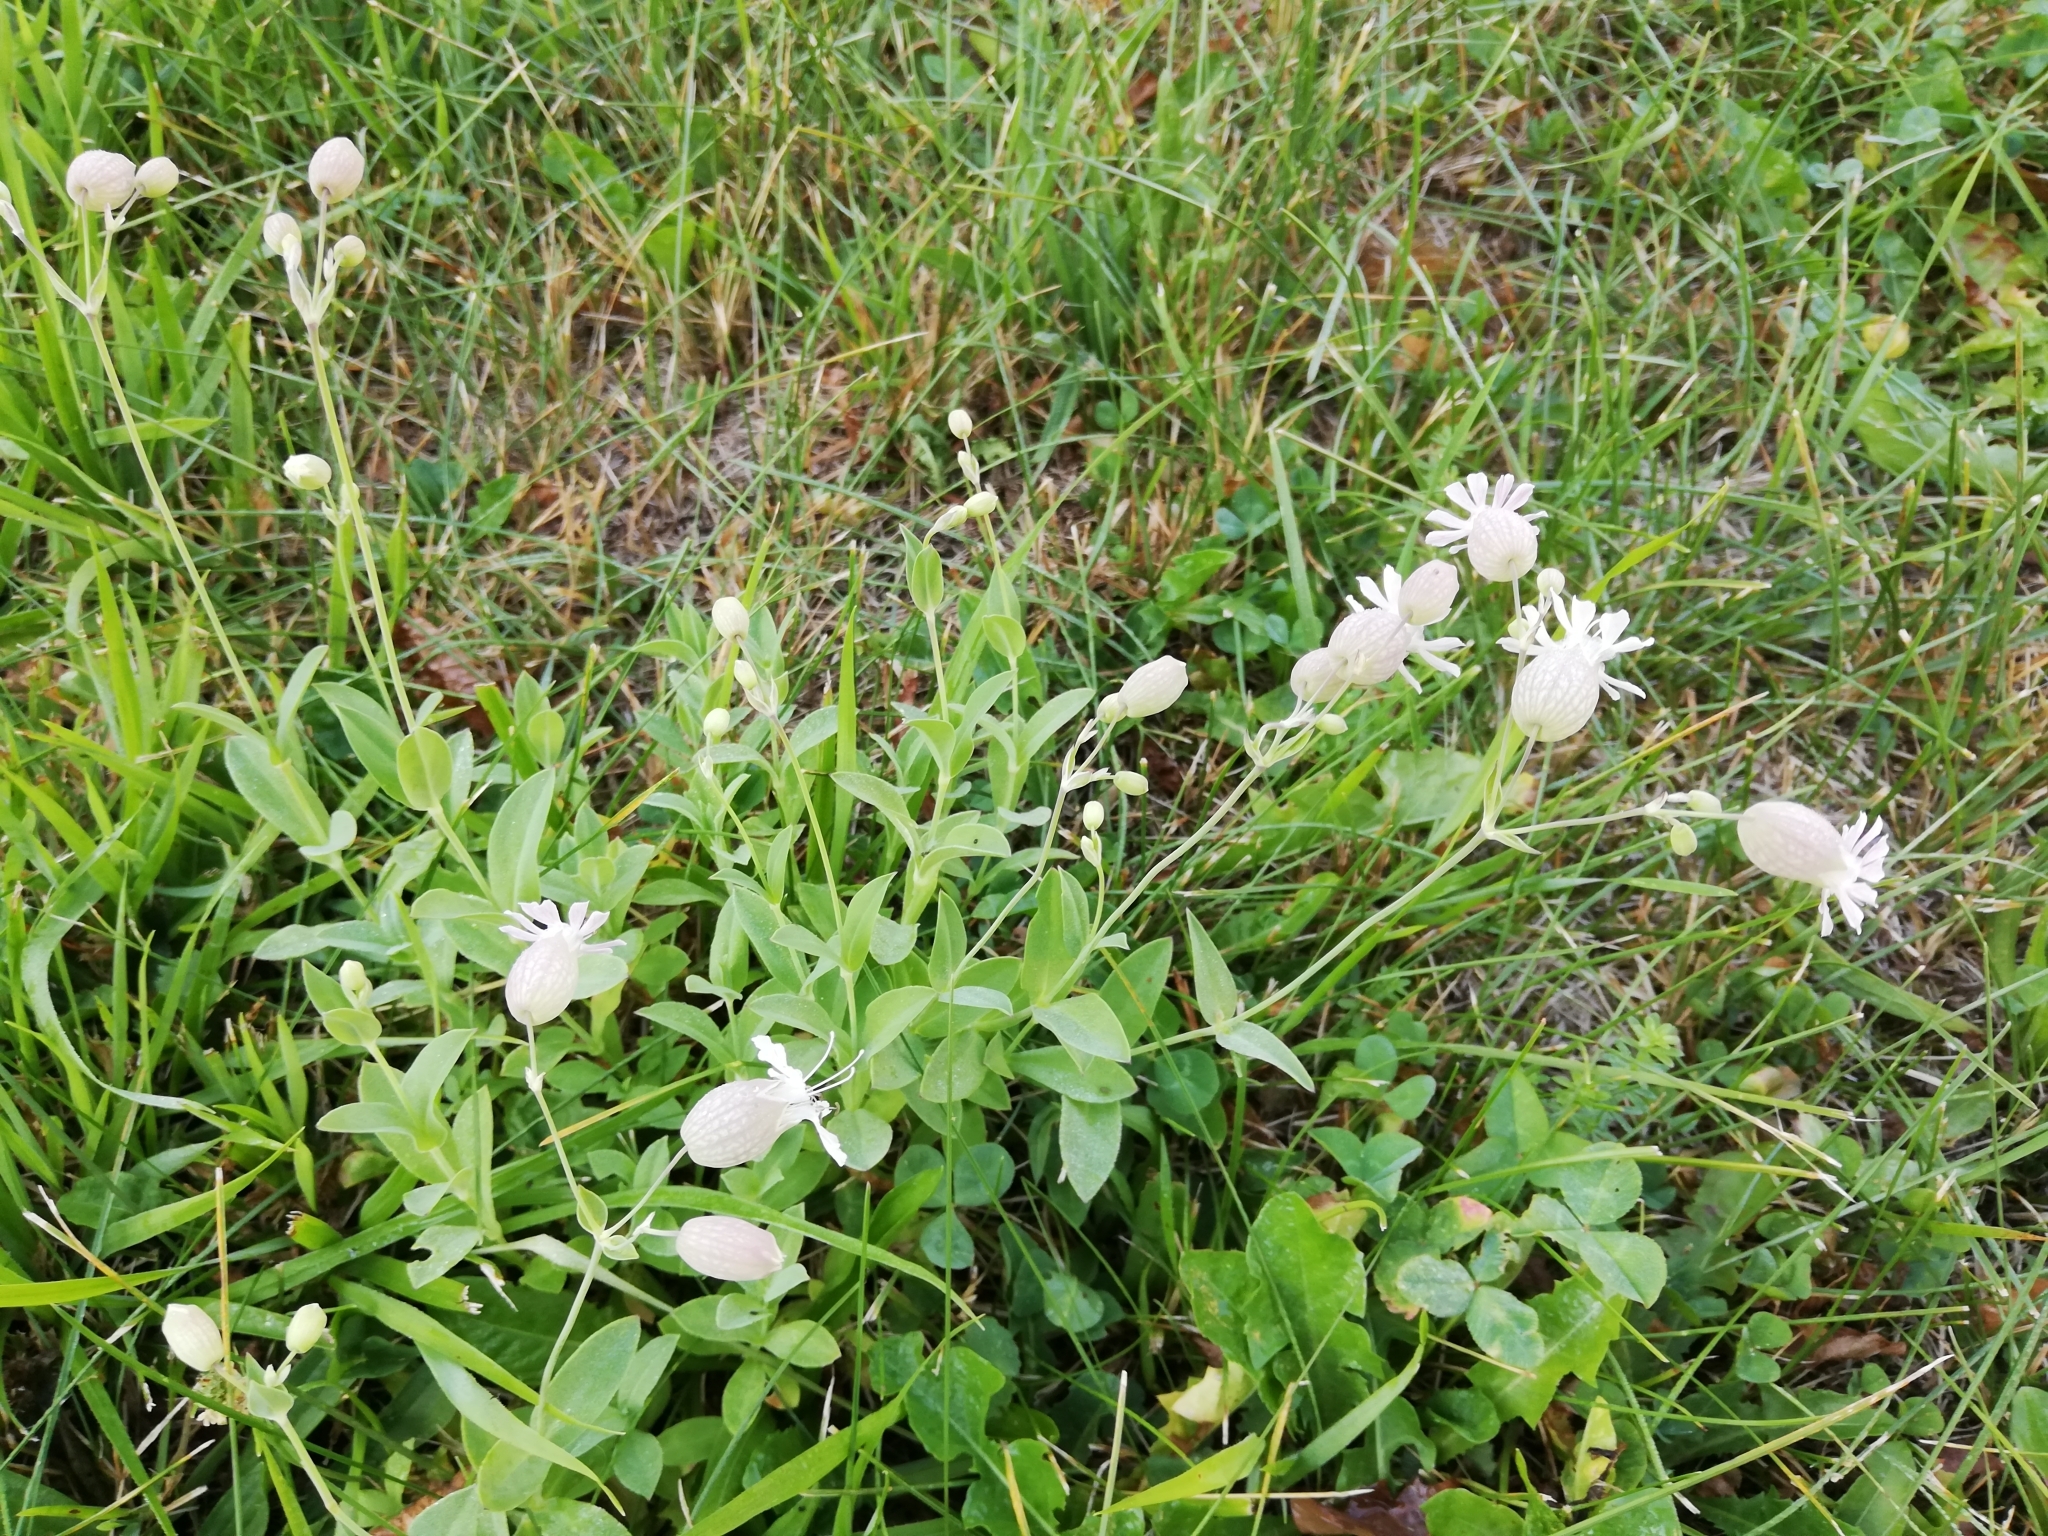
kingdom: Plantae
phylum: Tracheophyta
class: Magnoliopsida
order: Caryophyllales
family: Caryophyllaceae
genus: Silene
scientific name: Silene vulgaris
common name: Bladder campion
